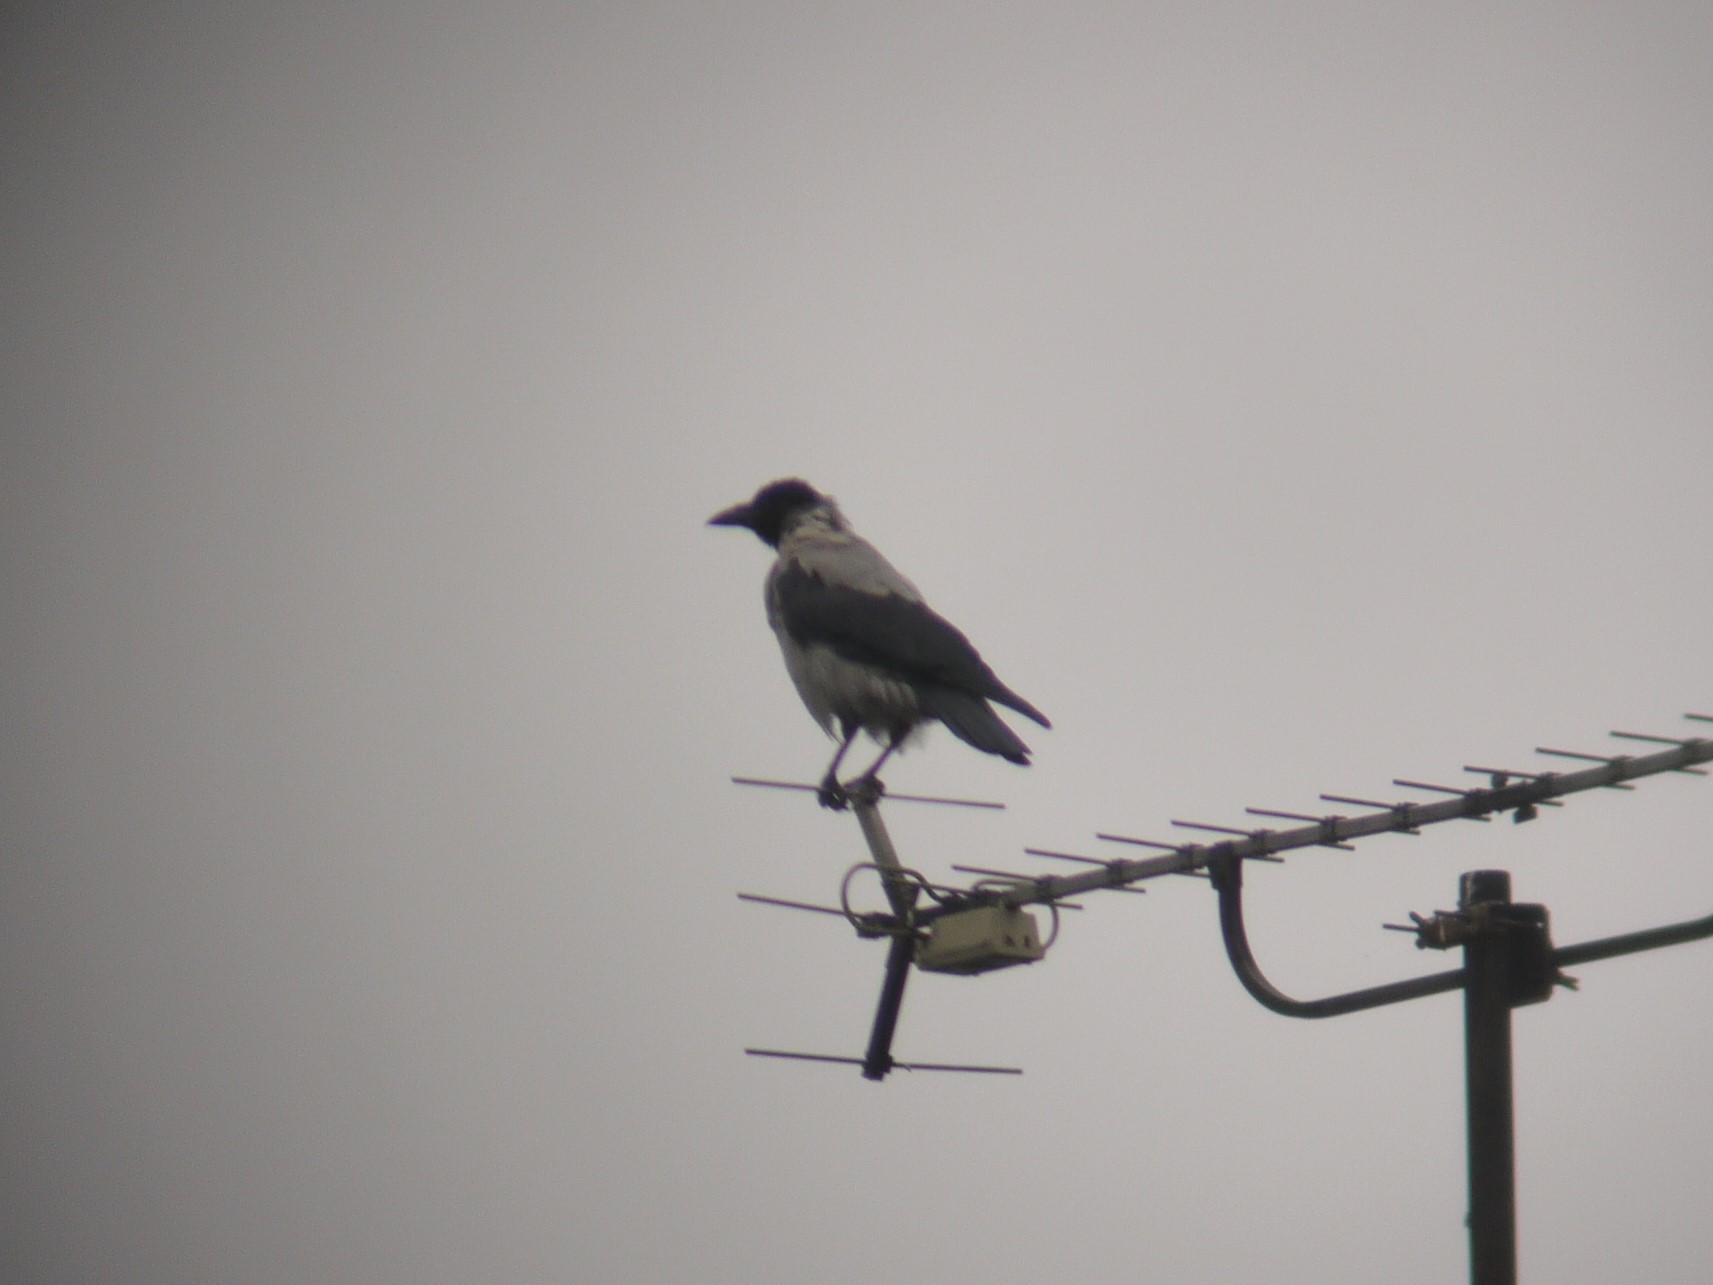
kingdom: Animalia
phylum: Chordata
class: Aves
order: Passeriformes
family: Corvidae
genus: Corvus
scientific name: Corvus cornix
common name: Hooded crow
